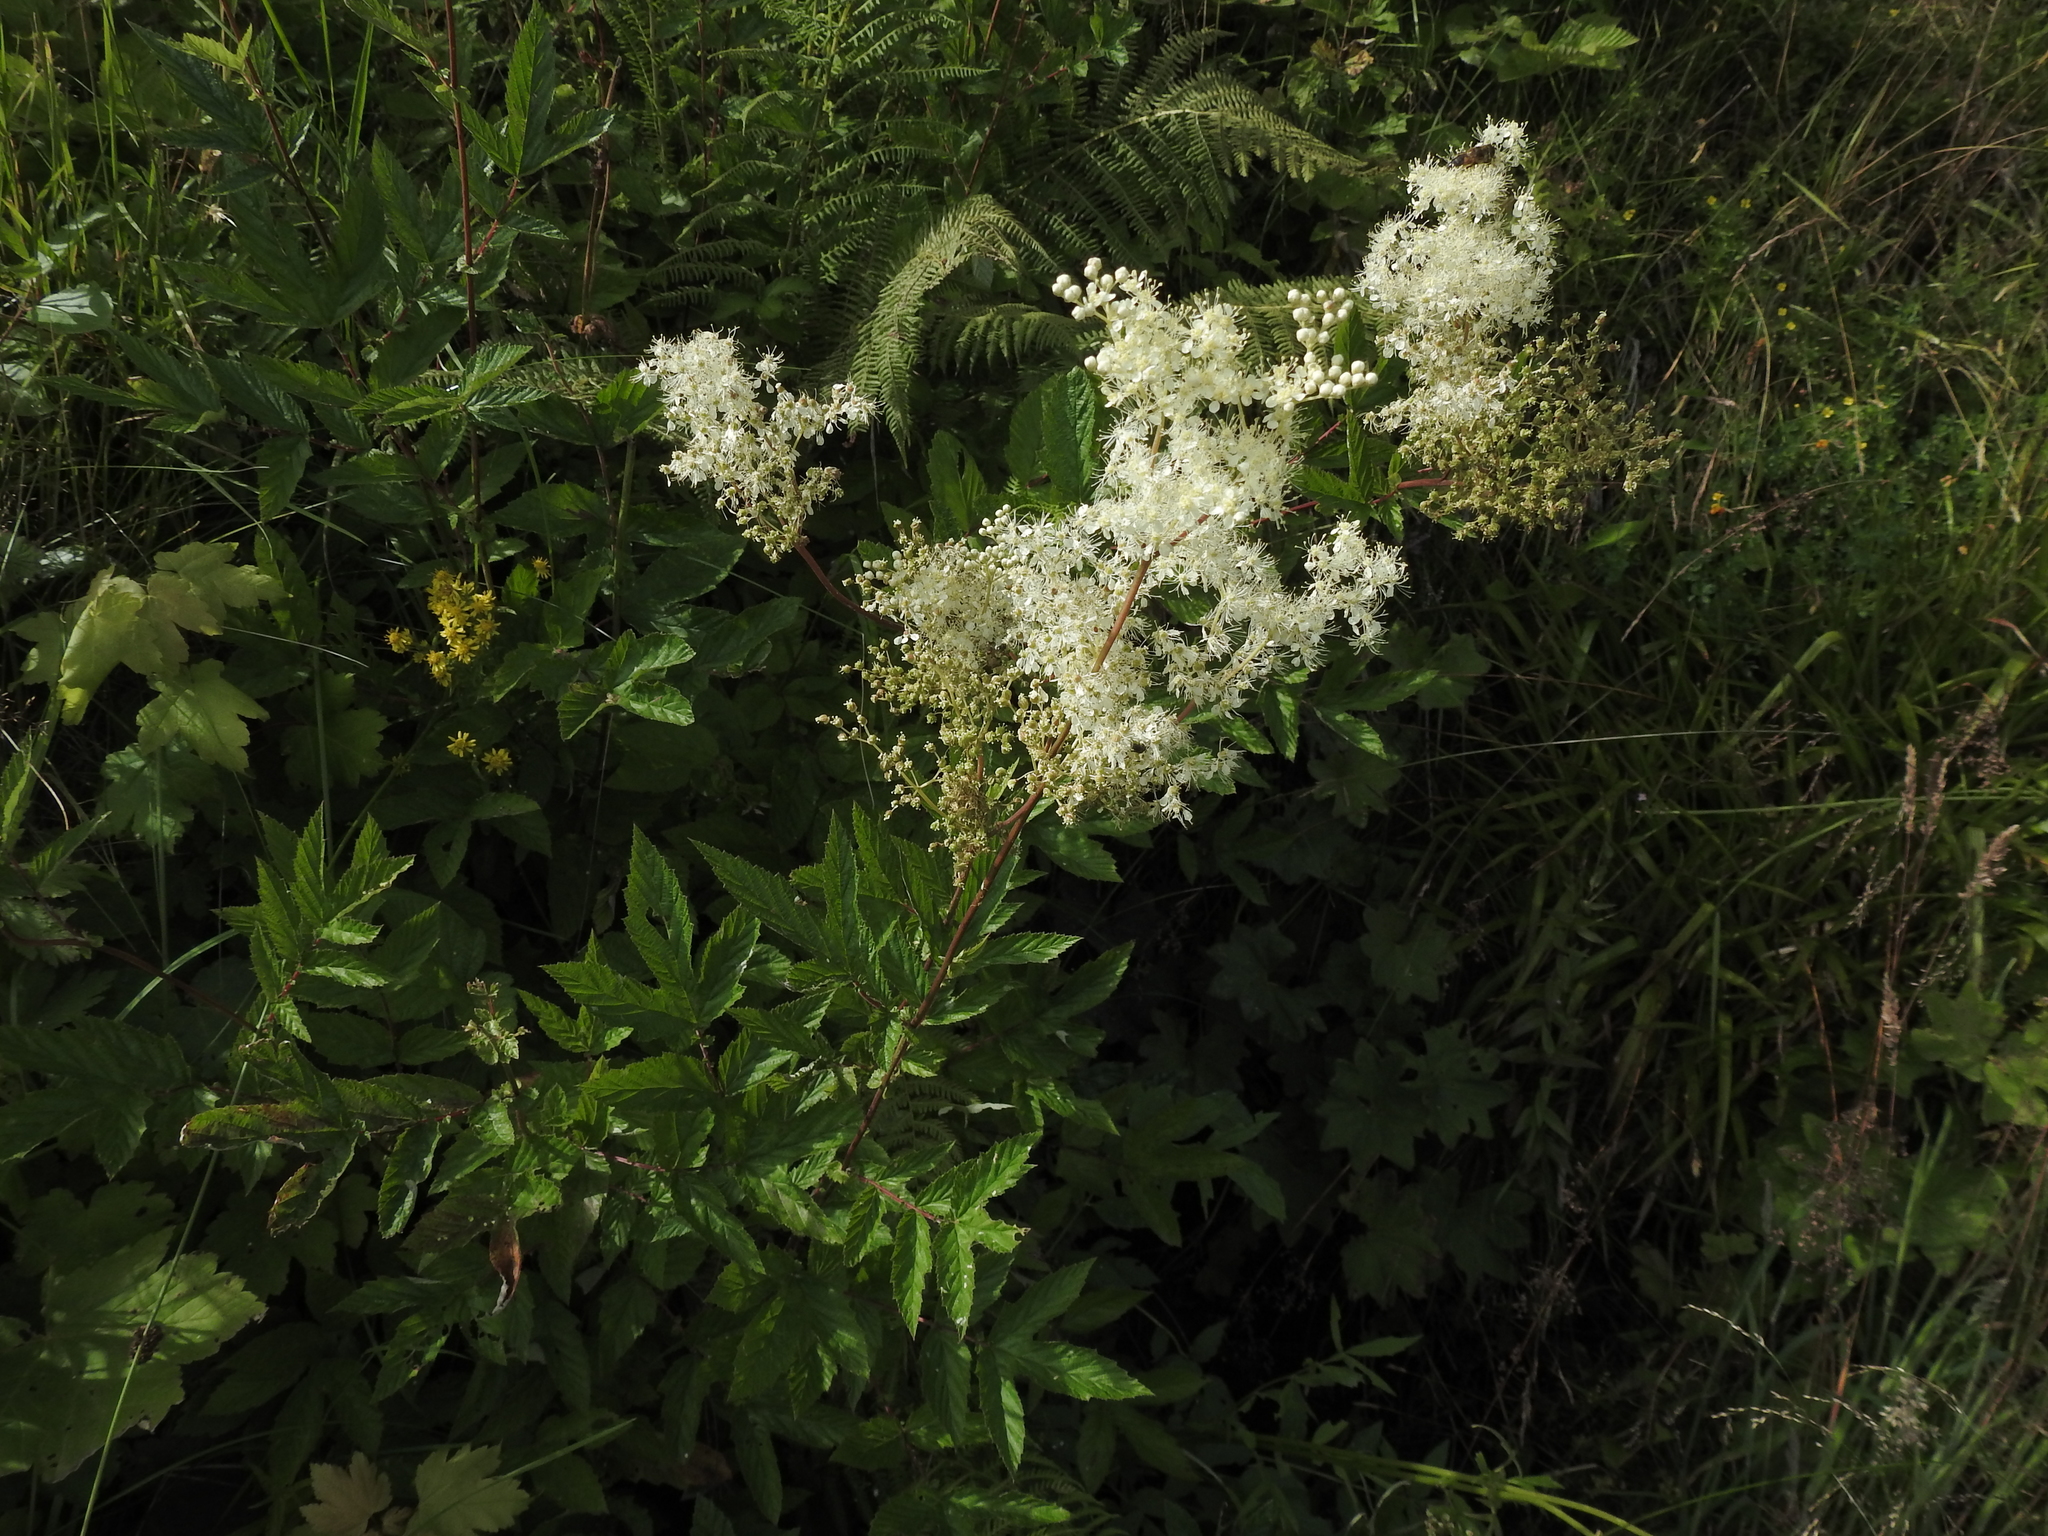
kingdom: Plantae
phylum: Tracheophyta
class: Magnoliopsida
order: Rosales
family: Rosaceae
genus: Filipendula
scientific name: Filipendula ulmaria
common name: Meadowsweet
